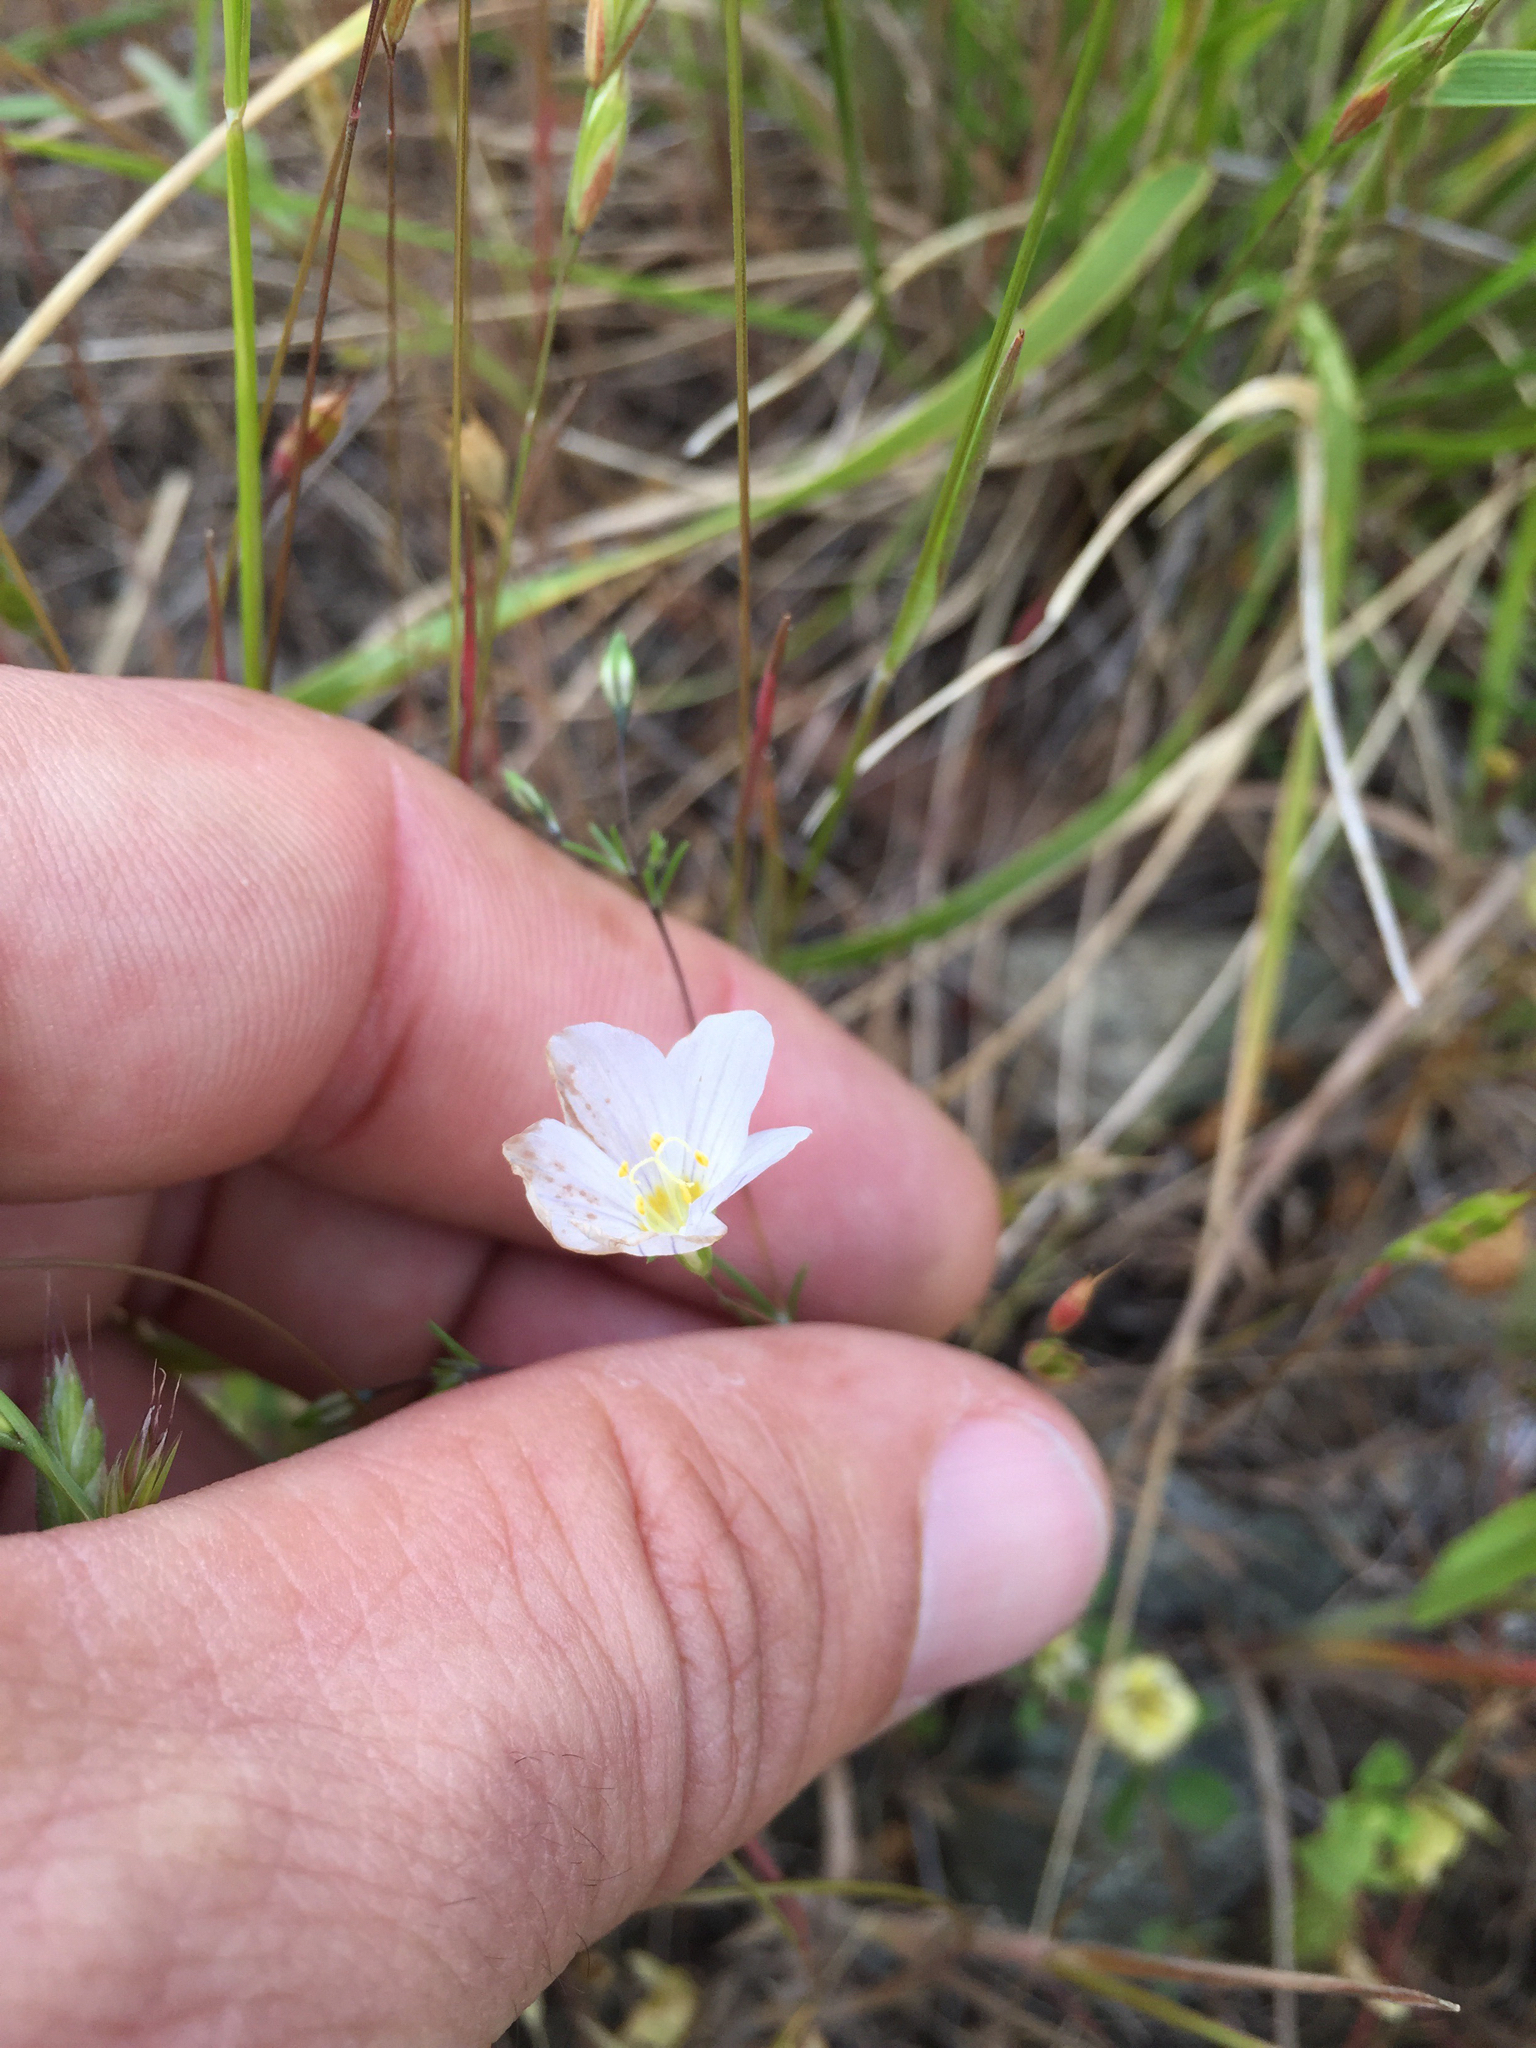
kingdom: Plantae
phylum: Tracheophyta
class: Magnoliopsida
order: Ericales
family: Polemoniaceae
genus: Leptosiphon
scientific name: Leptosiphon liniflorus
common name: Narrowflower flaxflower
